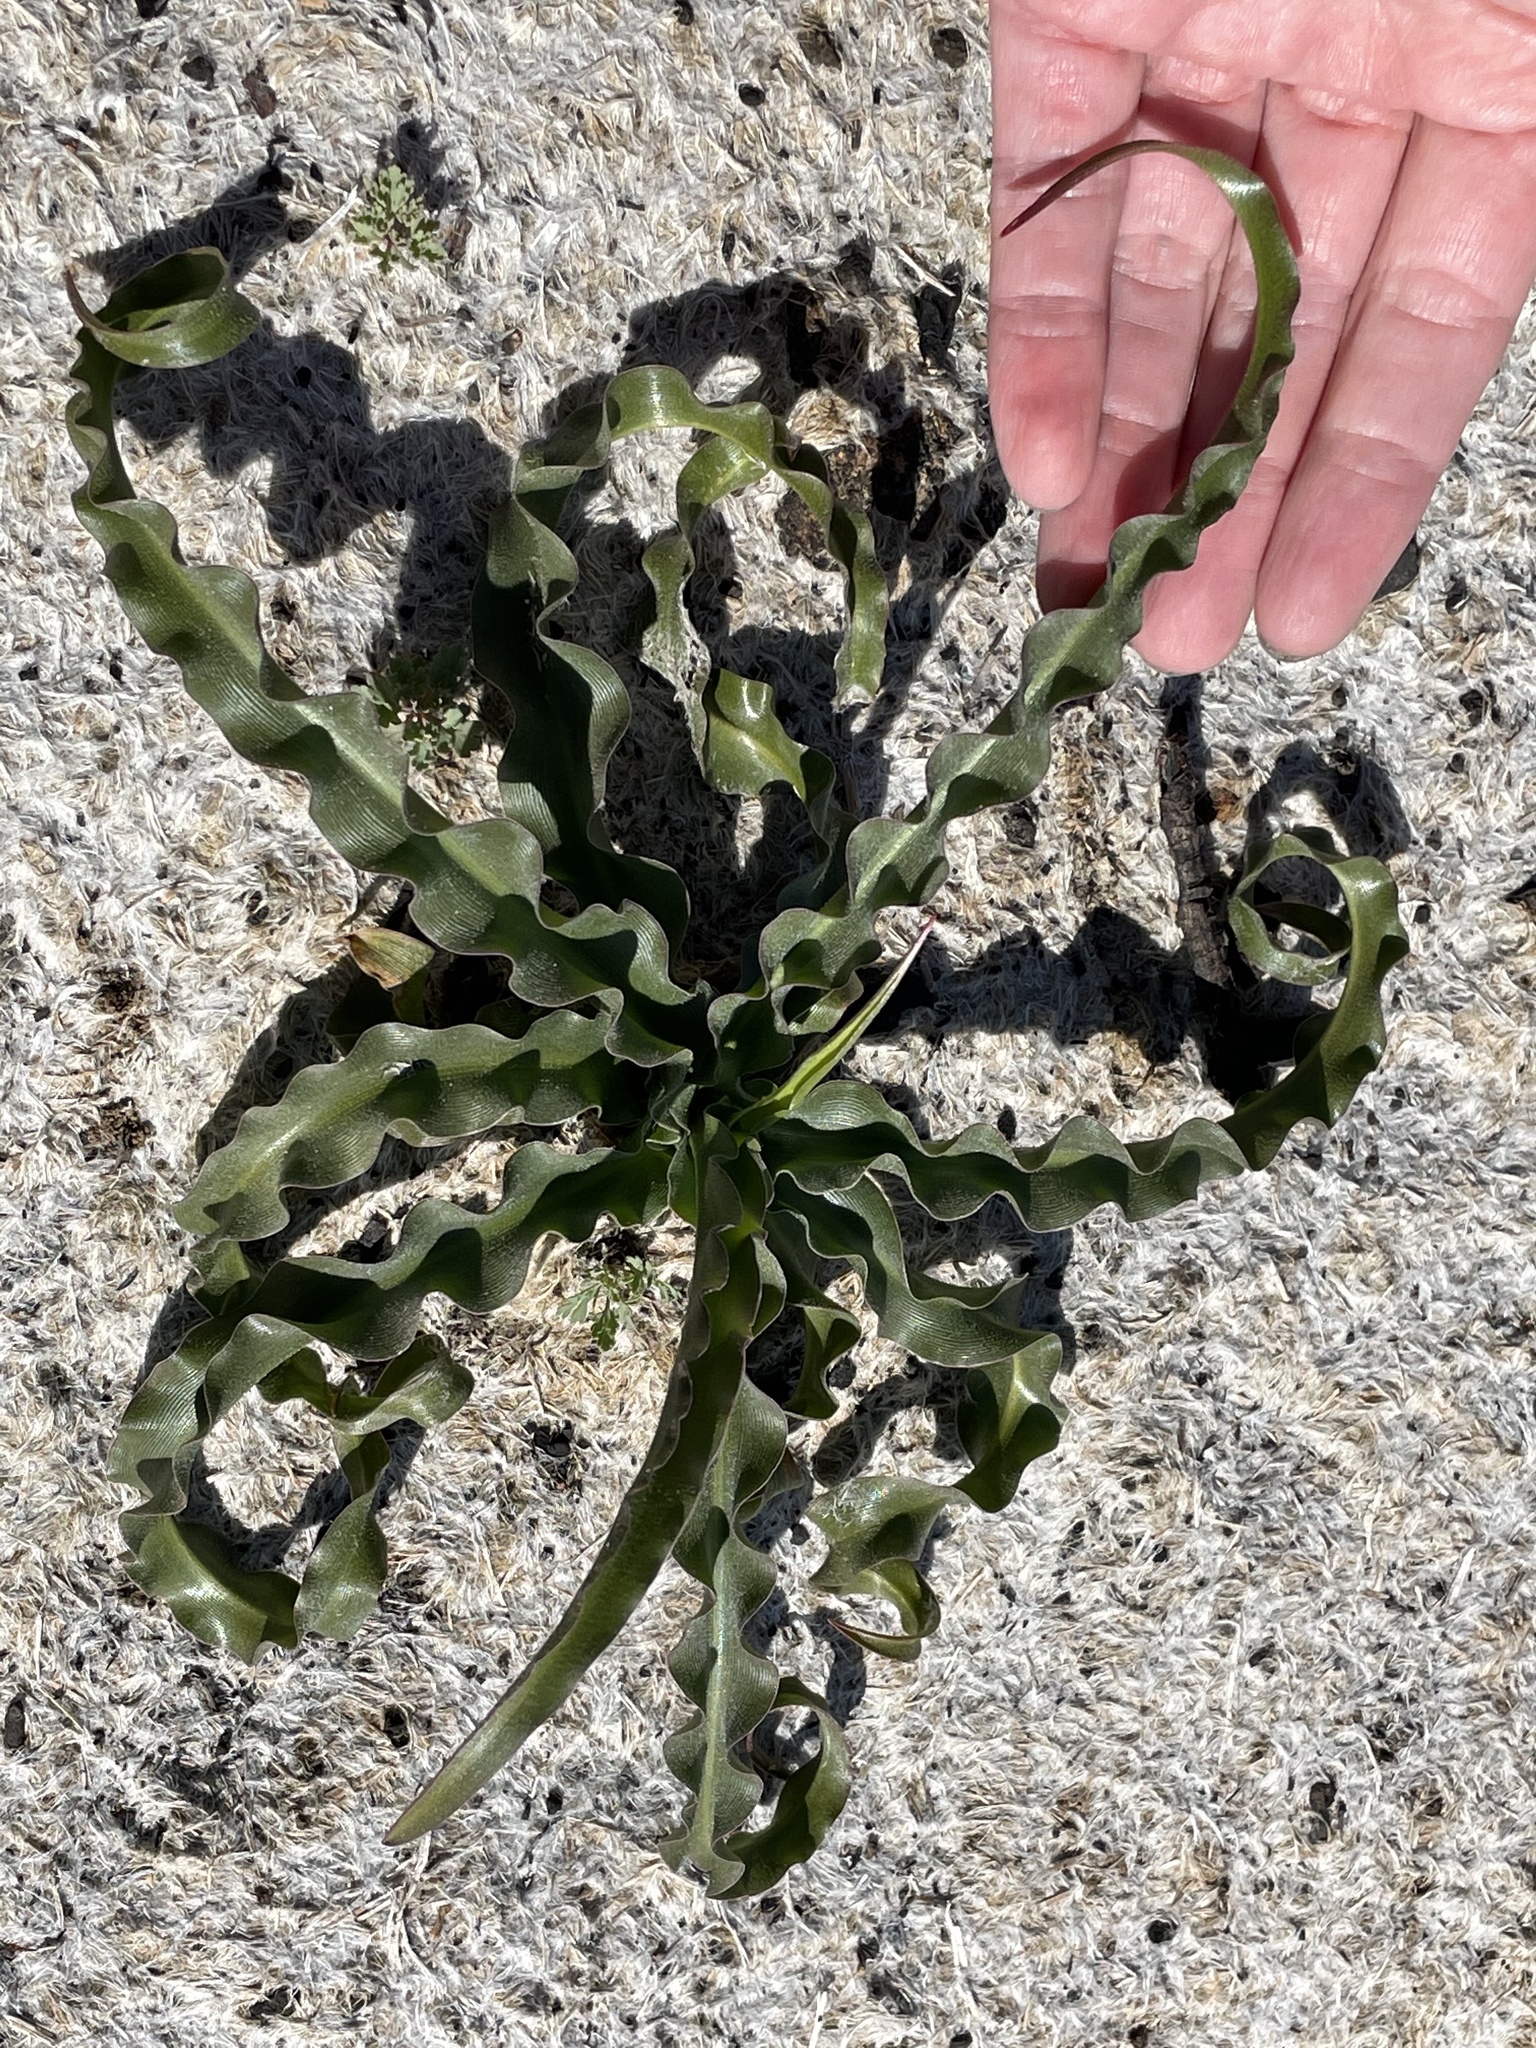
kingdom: Plantae
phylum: Tracheophyta
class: Liliopsida
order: Asparagales
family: Asparagaceae
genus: Hooveria
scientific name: Hooveria parviflora
